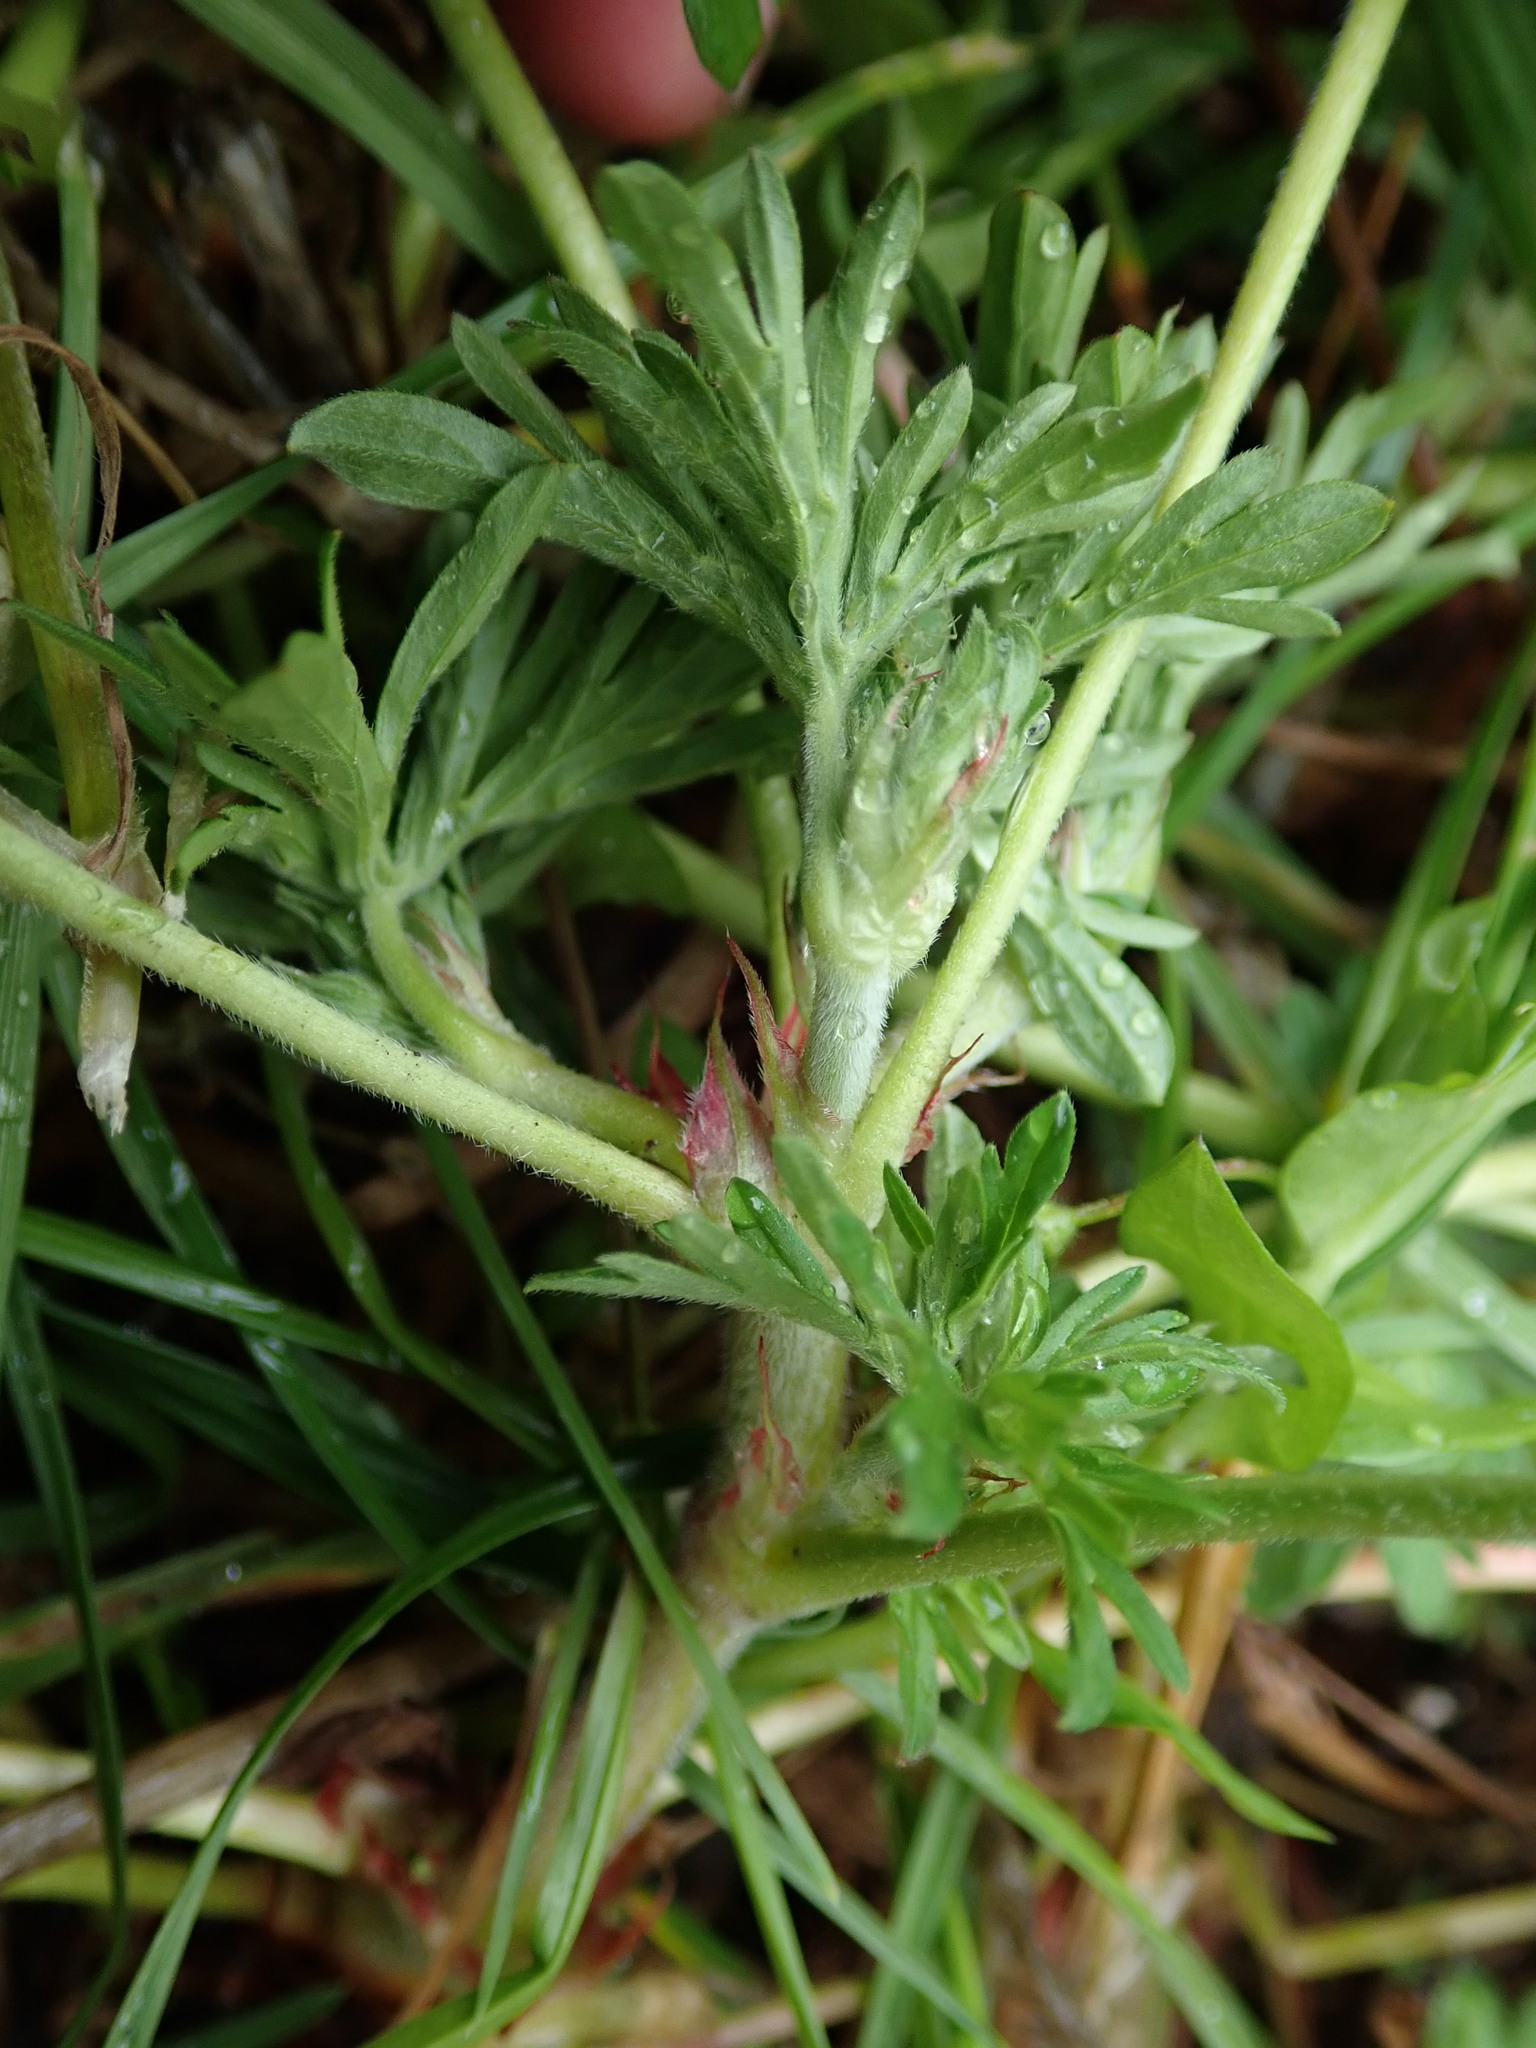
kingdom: Plantae
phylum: Tracheophyta
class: Magnoliopsida
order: Geraniales
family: Geraniaceae
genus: Geranium
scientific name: Geranium dissectum
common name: Cut-leaved crane's-bill
